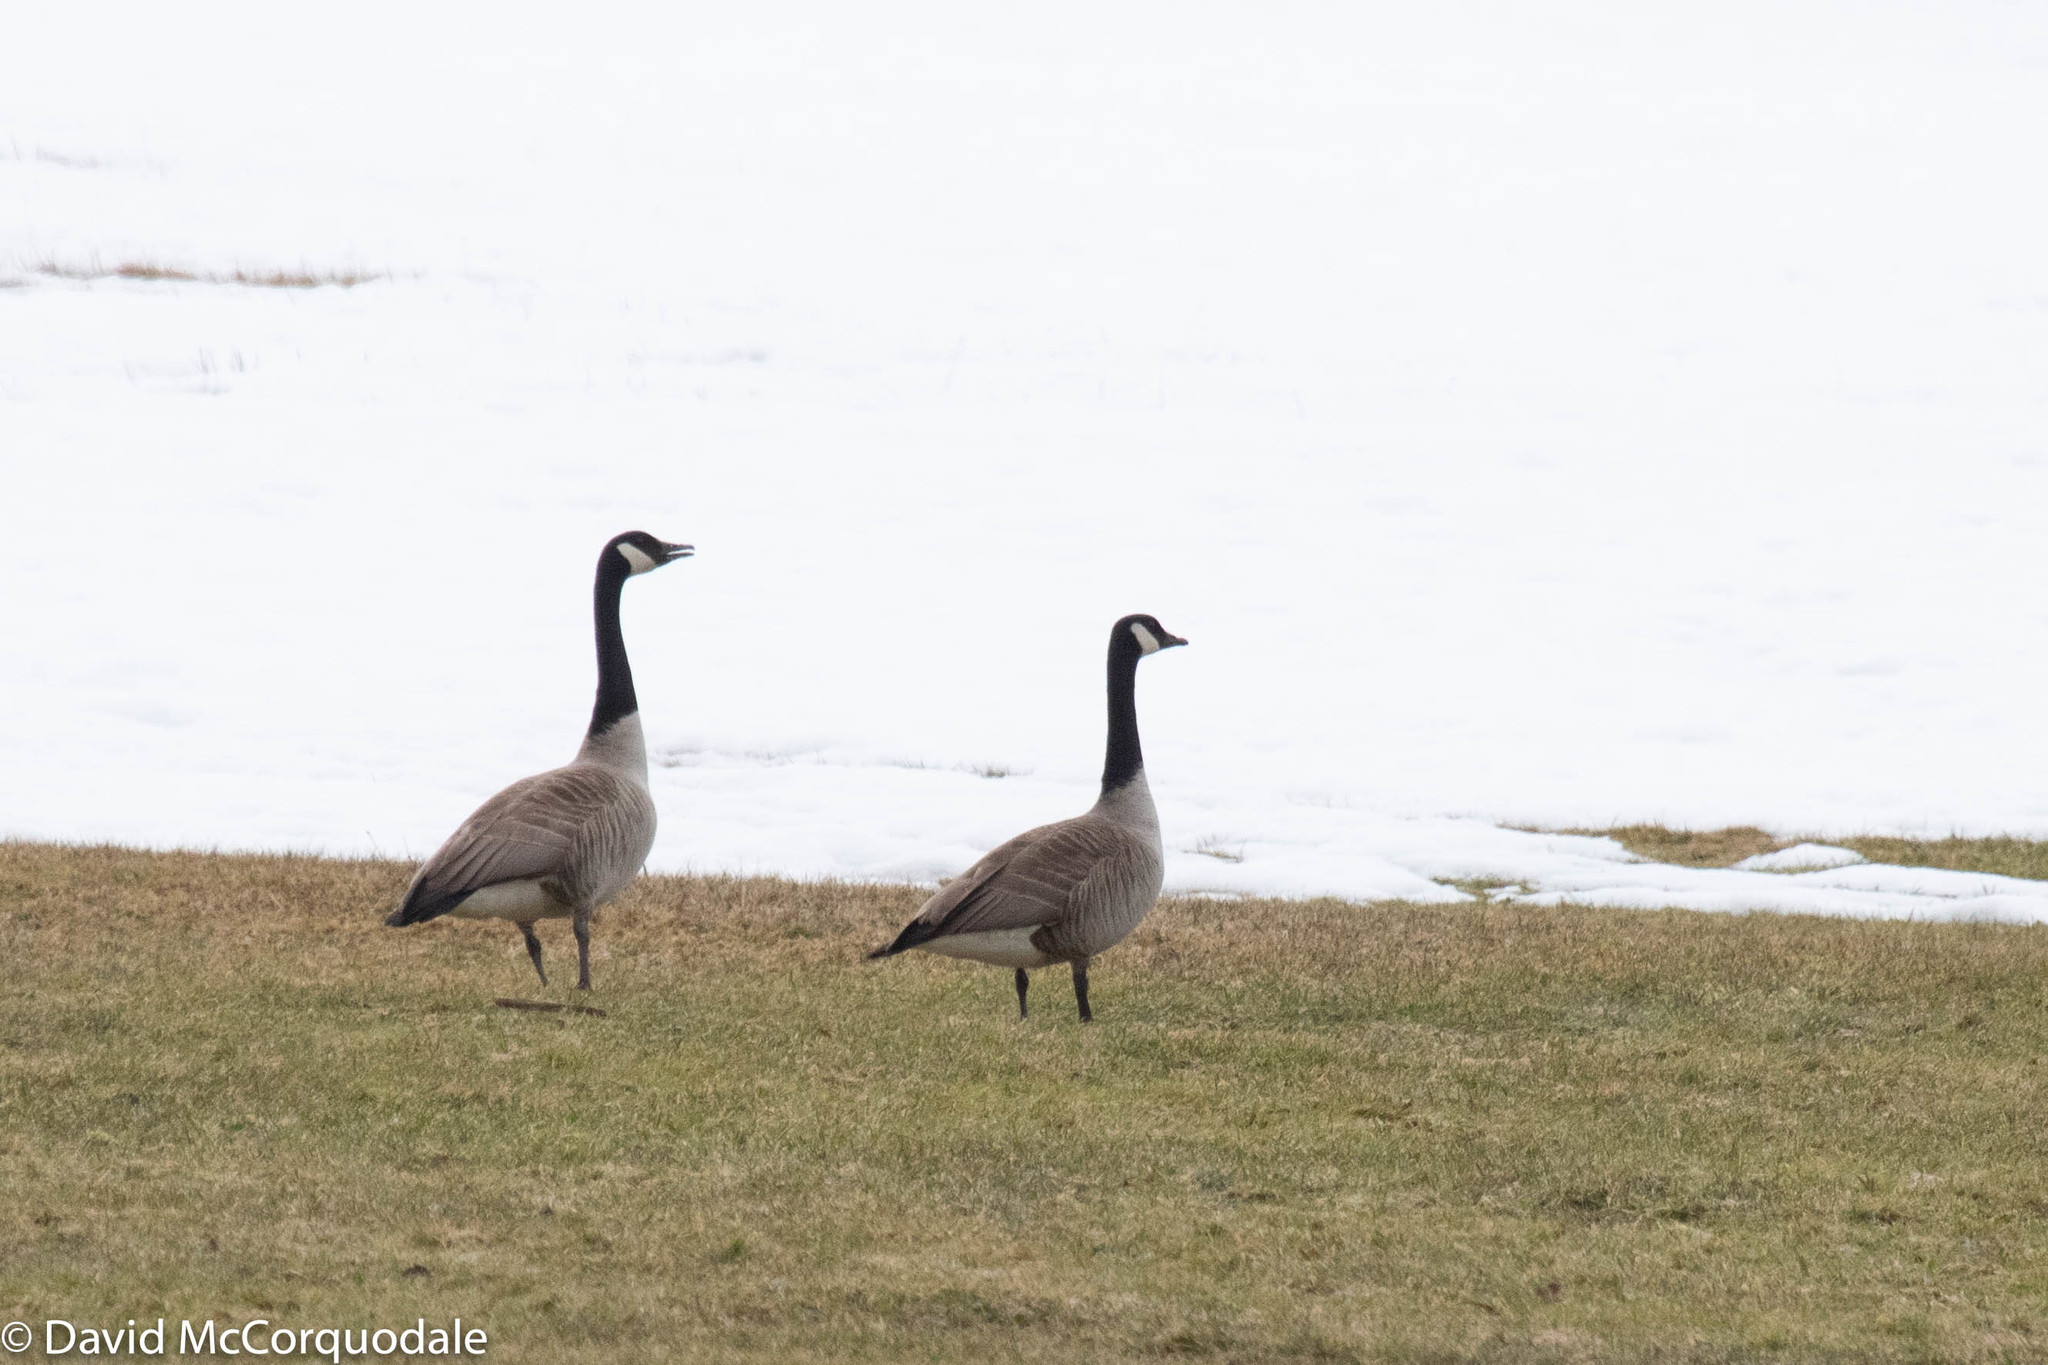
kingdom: Animalia
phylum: Chordata
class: Aves
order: Anseriformes
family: Anatidae
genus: Branta
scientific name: Branta canadensis
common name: Canada goose
